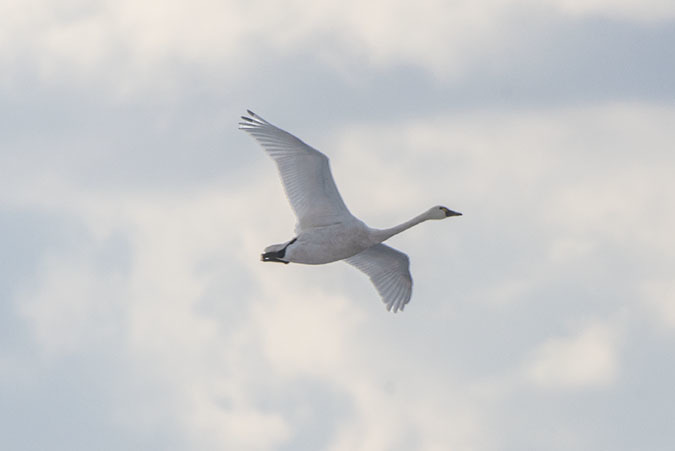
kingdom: Animalia
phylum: Chordata
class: Aves
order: Anseriformes
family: Anatidae
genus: Cygnus
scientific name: Cygnus columbianus
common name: Tundra swan
